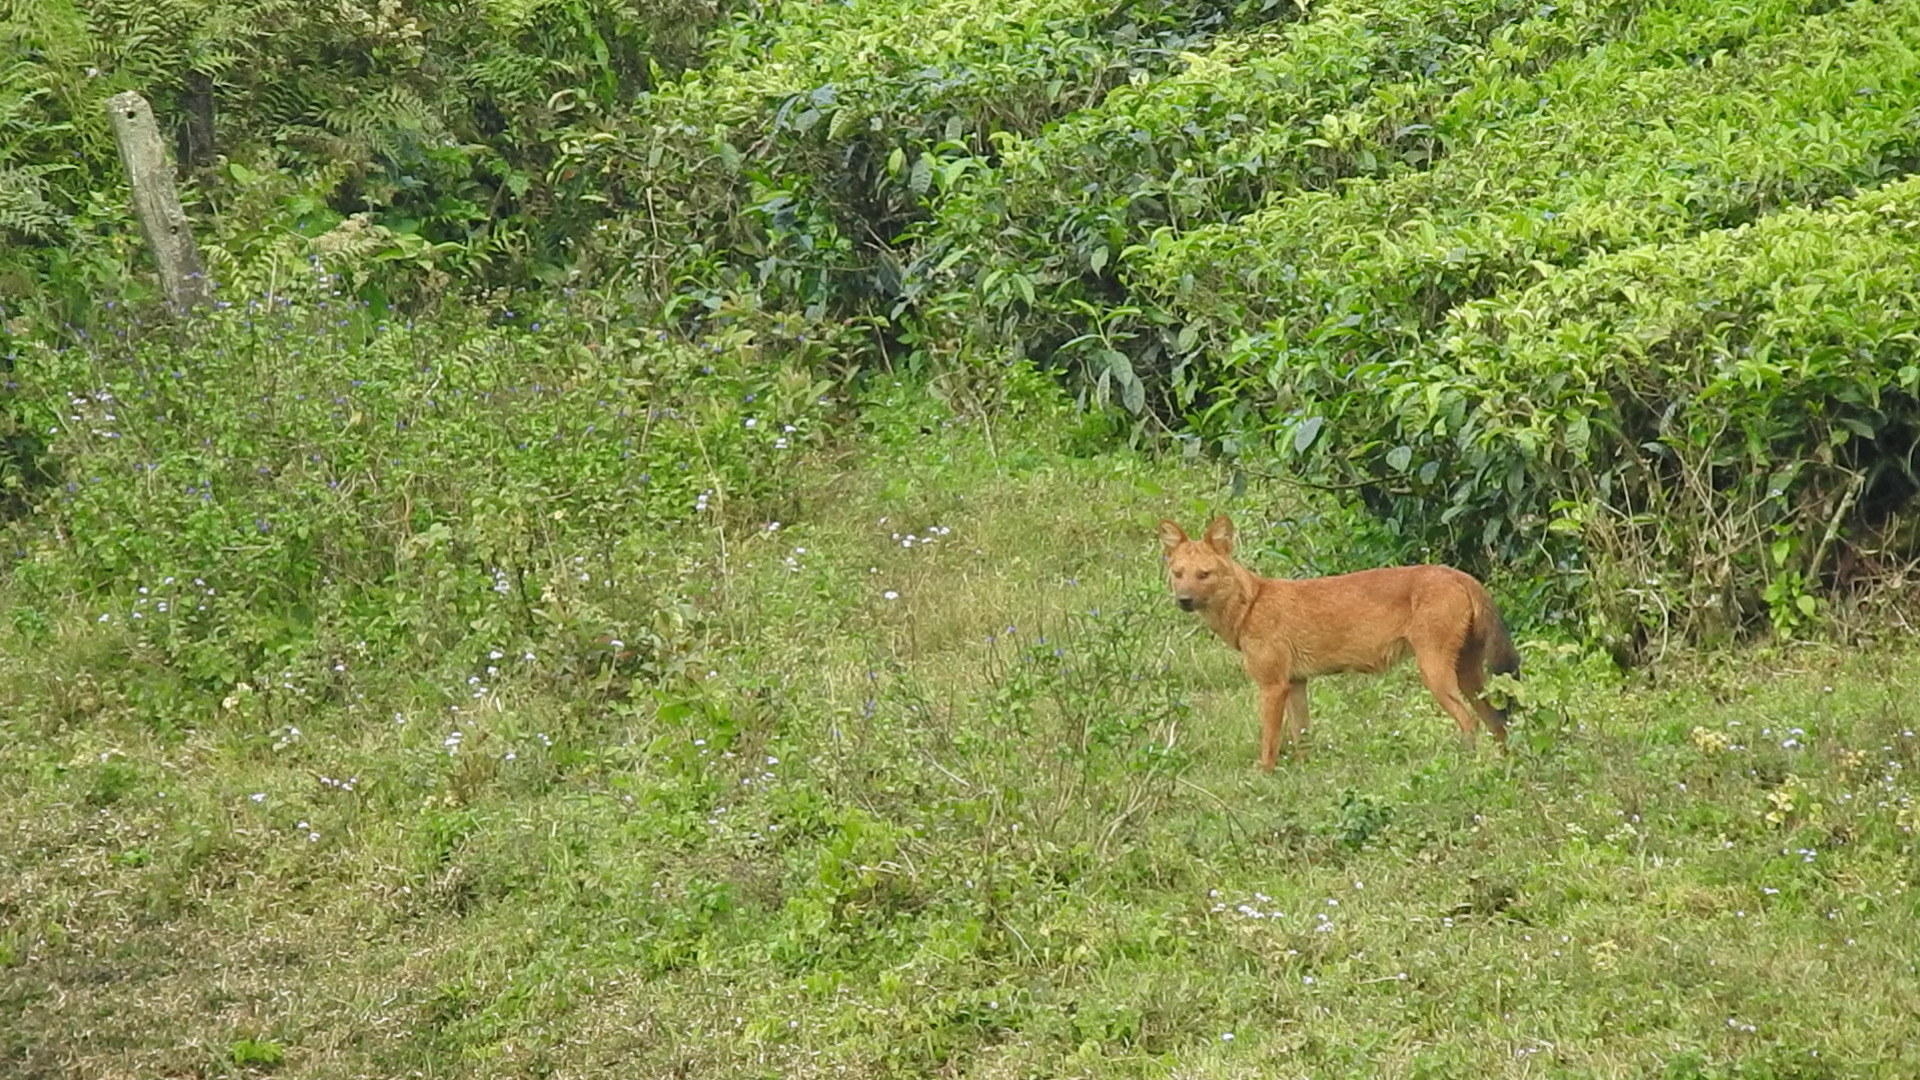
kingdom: Animalia
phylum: Chordata
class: Mammalia
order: Carnivora
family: Canidae
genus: Cuon
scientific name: Cuon alpinus
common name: Dhole
